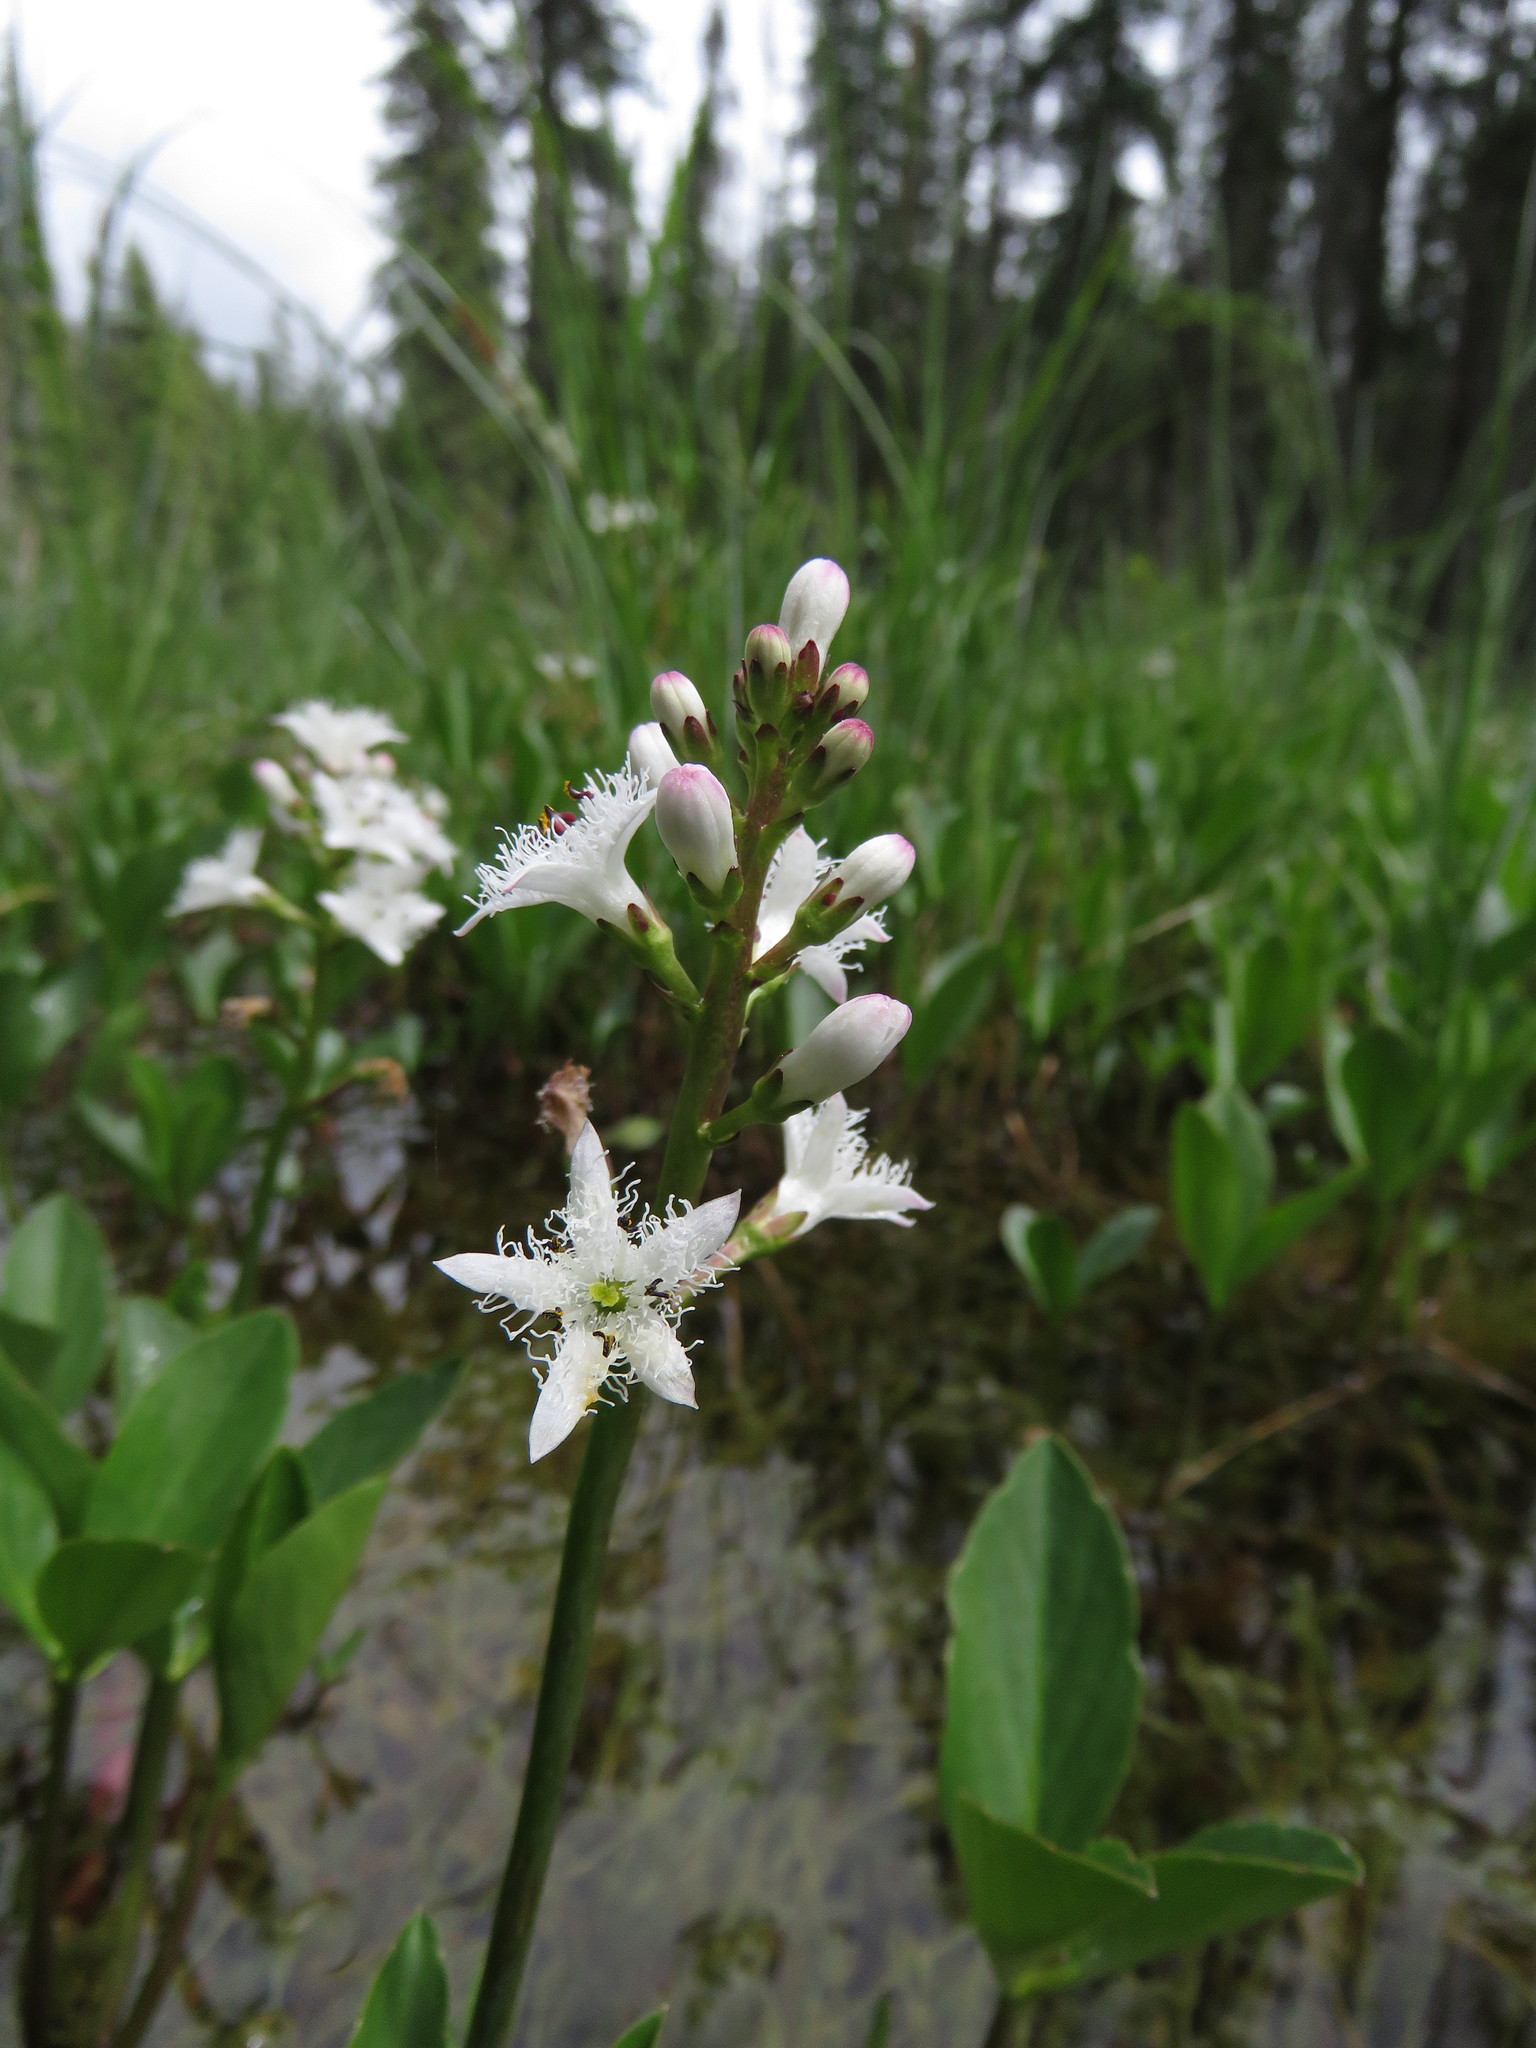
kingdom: Plantae
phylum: Tracheophyta
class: Magnoliopsida
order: Asterales
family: Menyanthaceae
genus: Menyanthes
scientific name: Menyanthes trifoliata
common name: Bogbean
